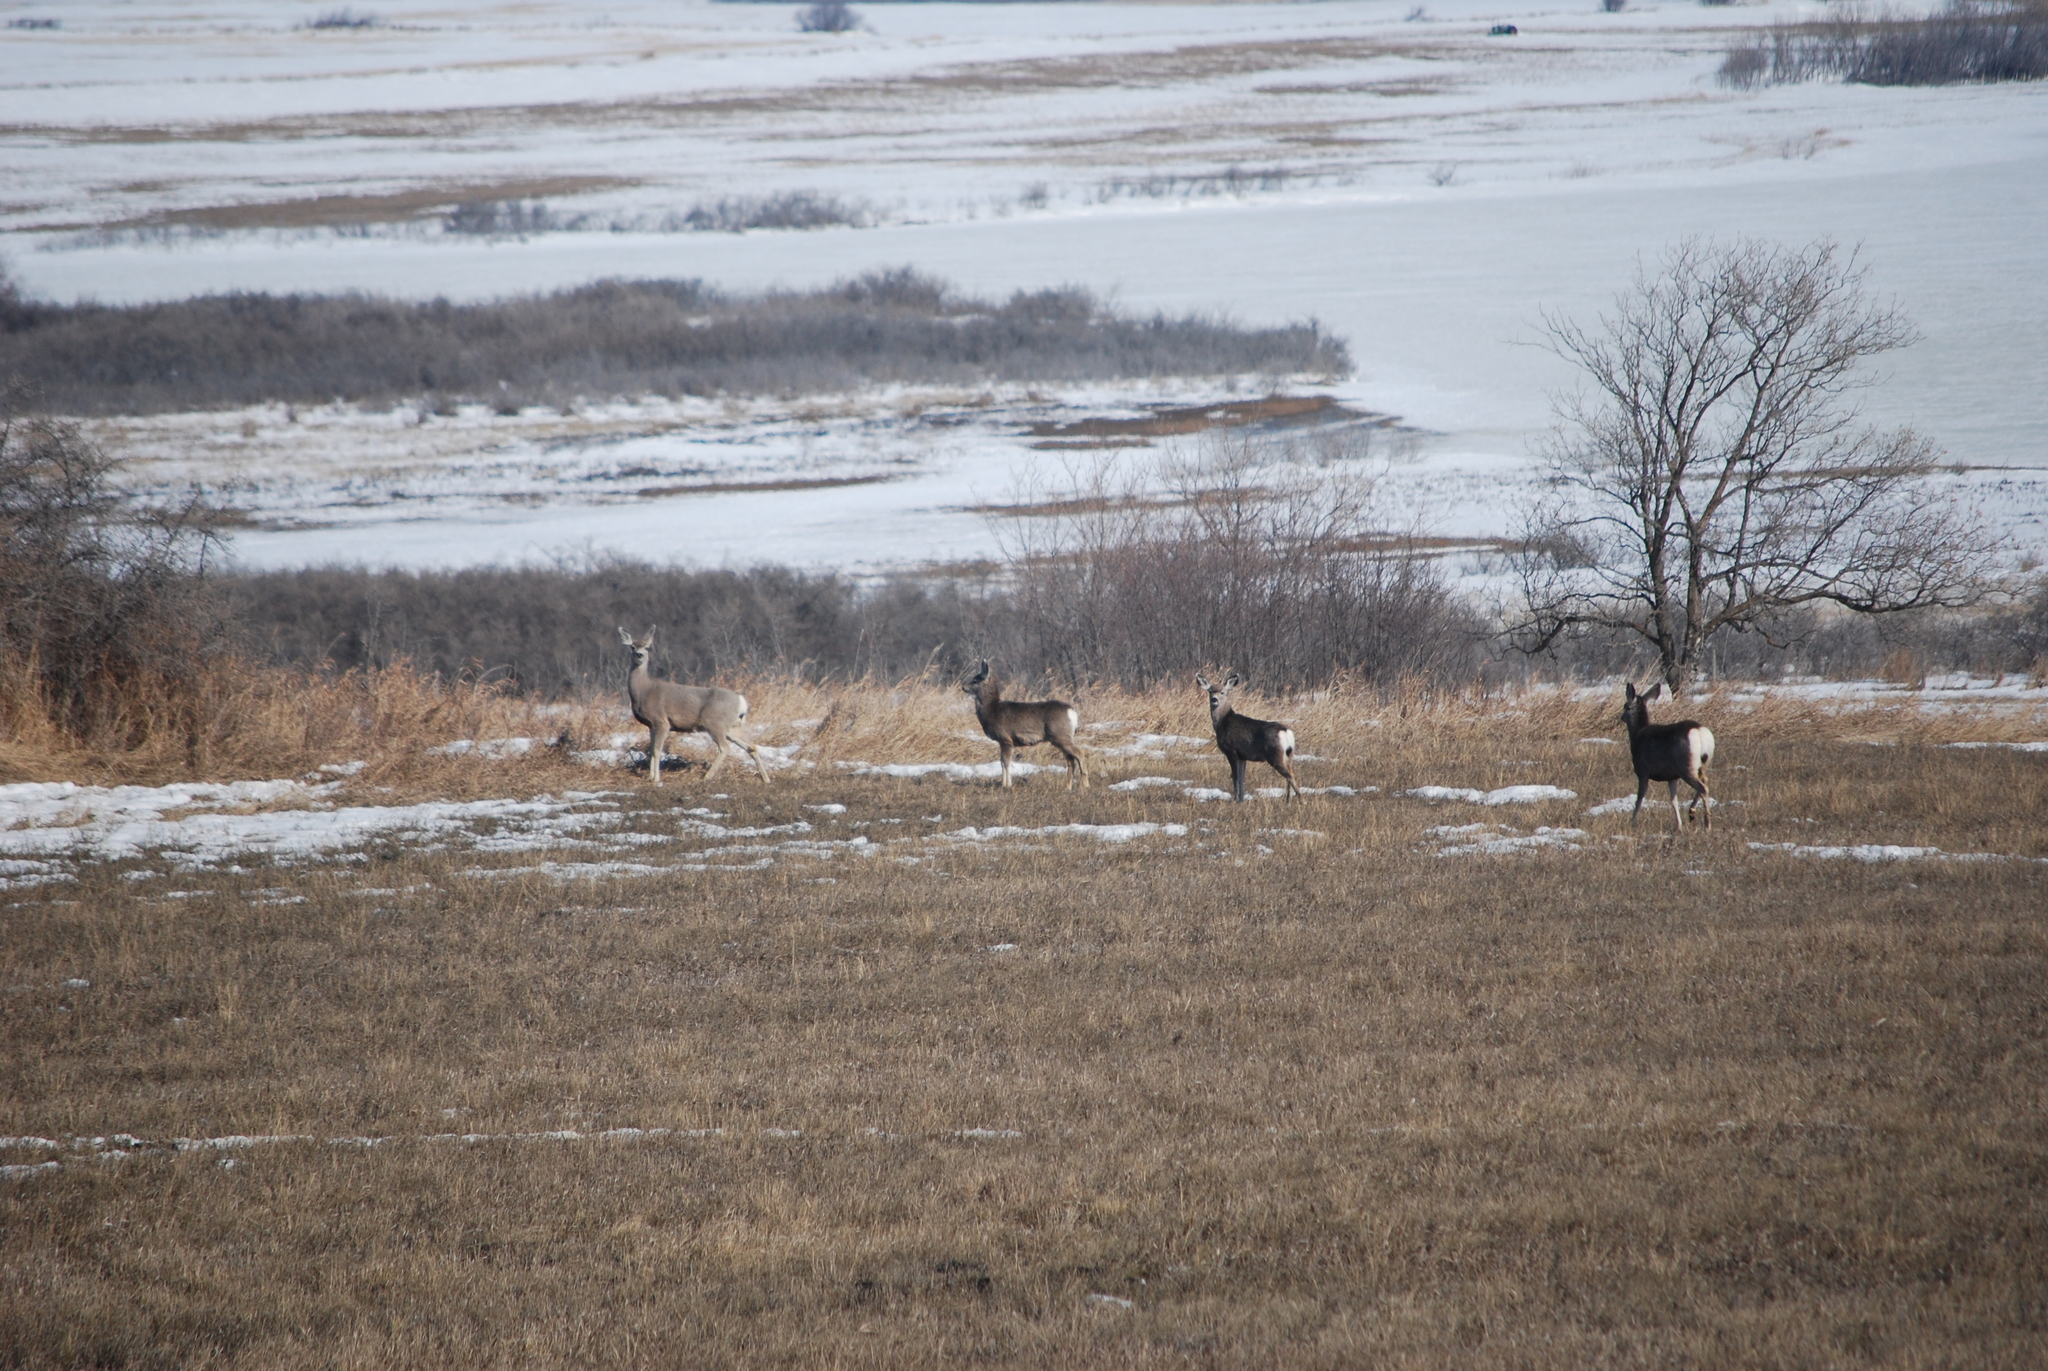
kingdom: Animalia
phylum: Chordata
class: Mammalia
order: Artiodactyla
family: Cervidae
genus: Odocoileus
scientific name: Odocoileus hemionus
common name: Mule deer
